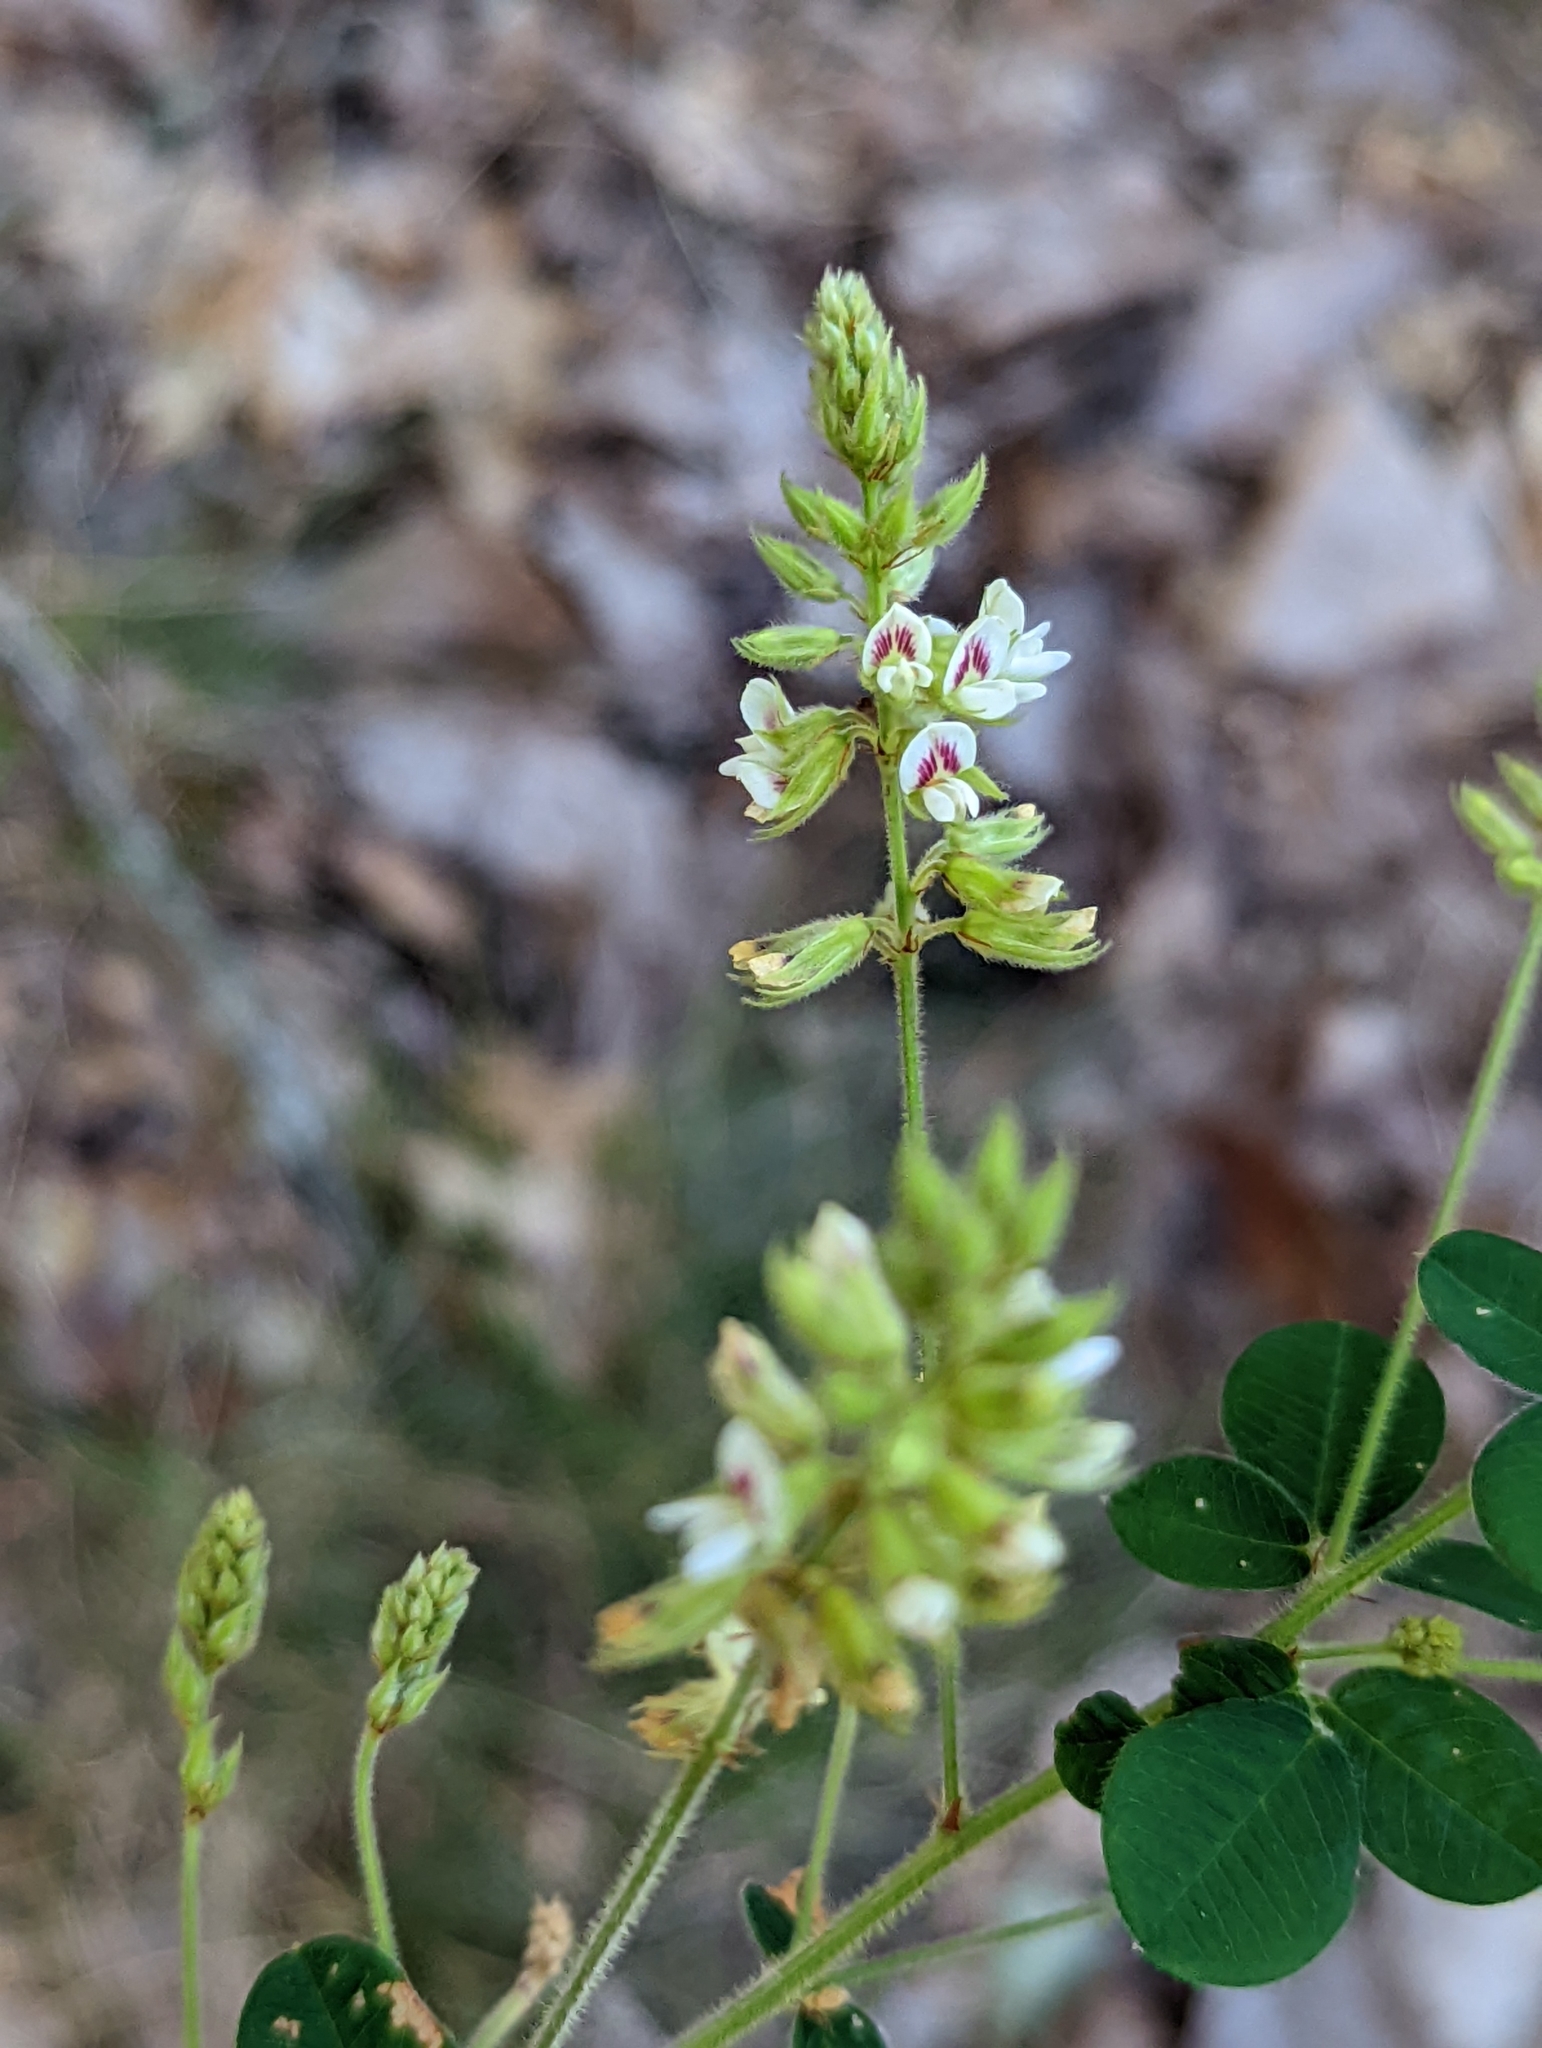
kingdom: Plantae
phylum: Tracheophyta
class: Magnoliopsida
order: Fabales
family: Fabaceae
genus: Lespedeza
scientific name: Lespedeza hirta
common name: Hairy lespedeza
